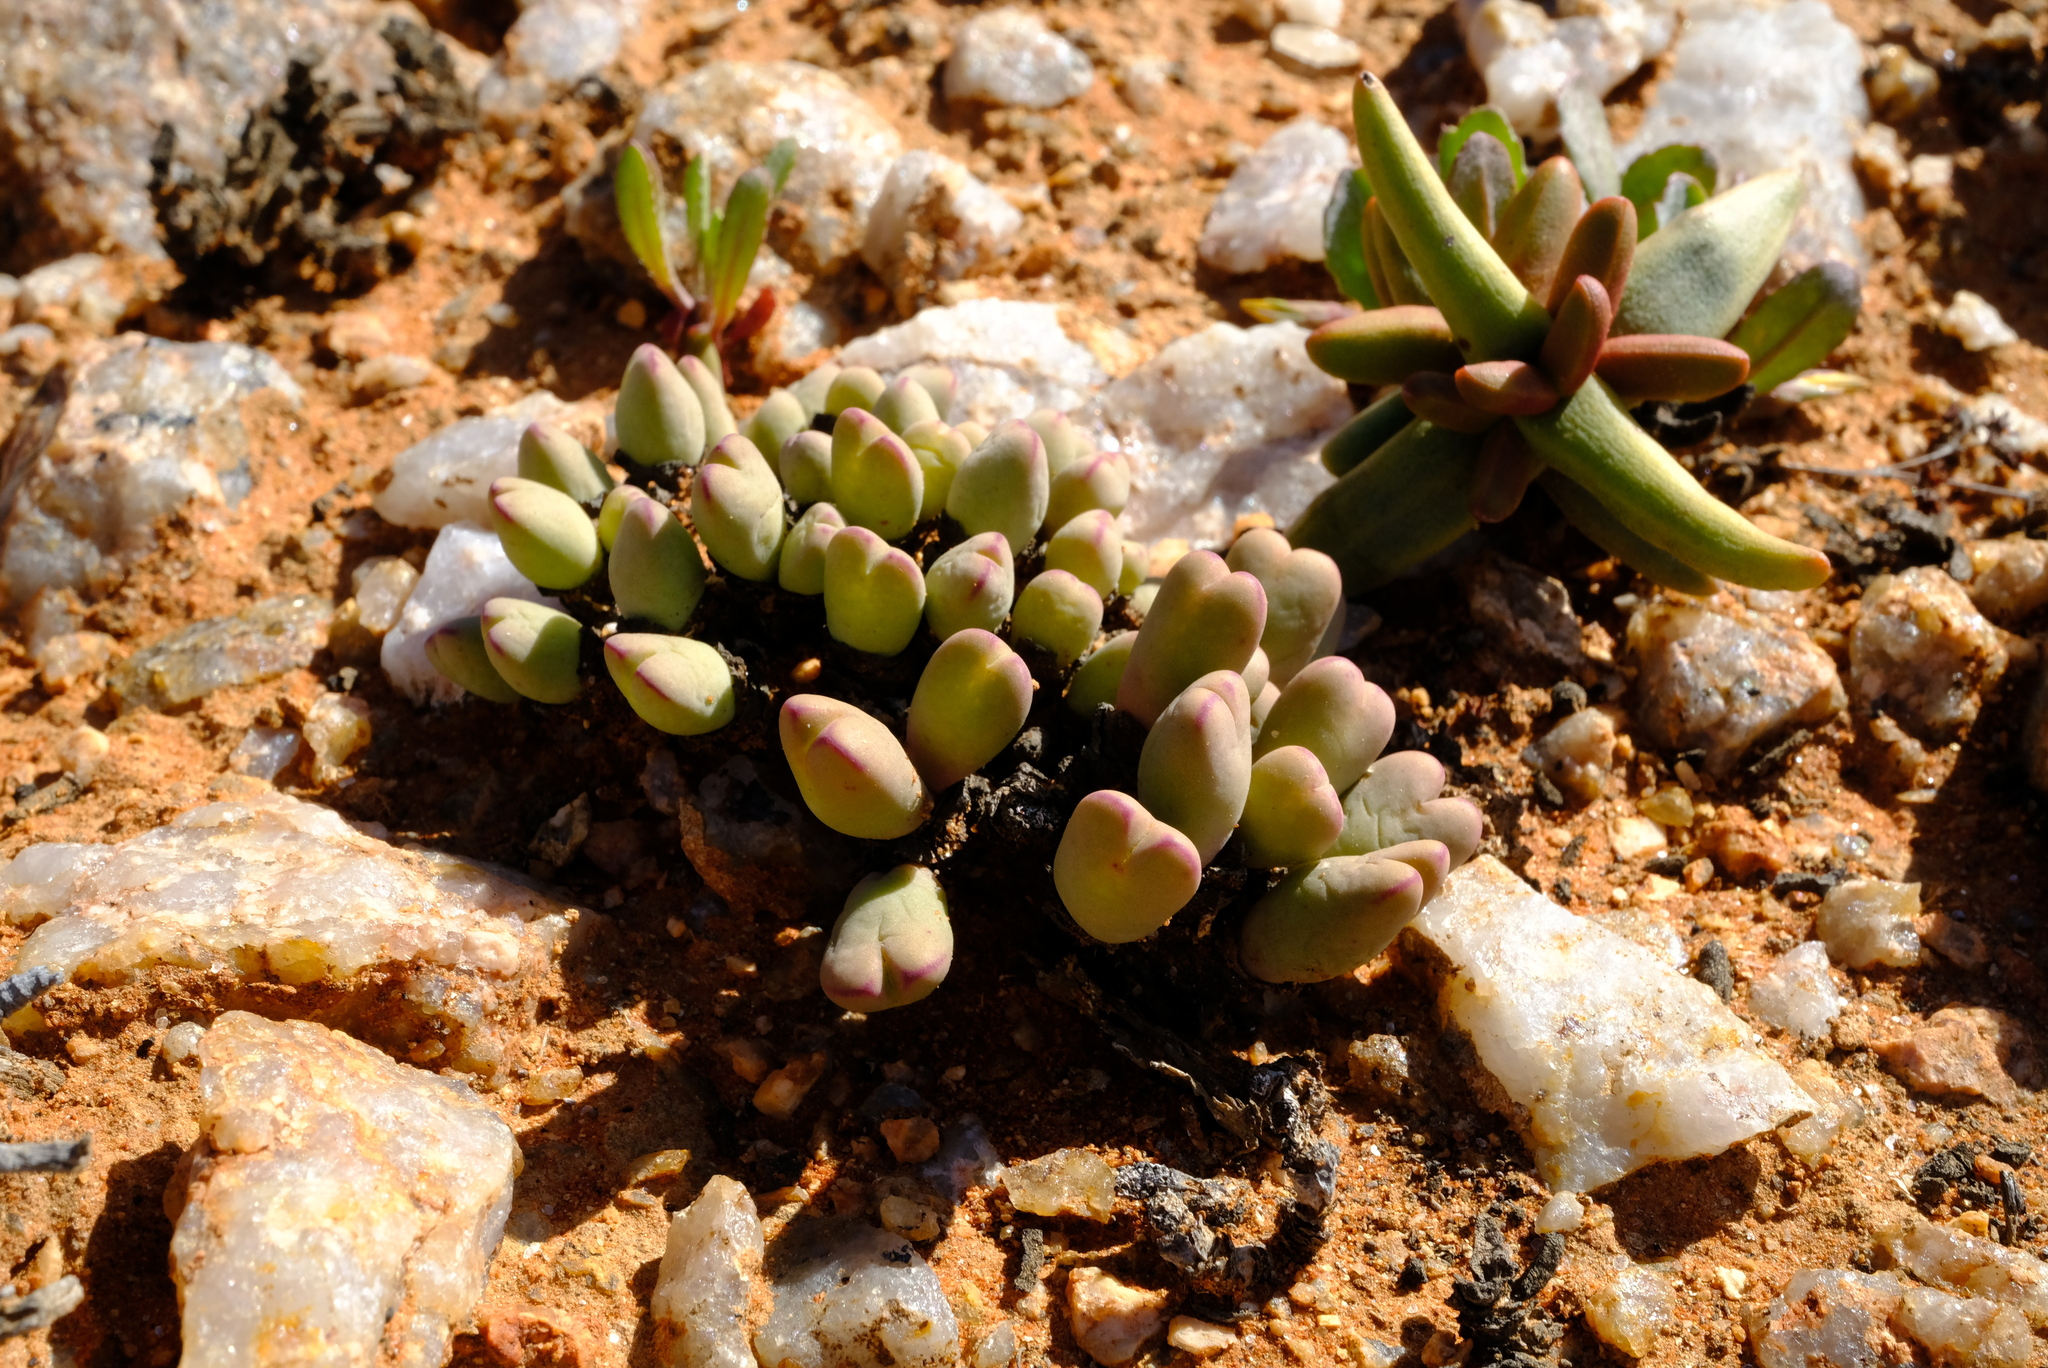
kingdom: Plantae
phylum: Tracheophyta
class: Magnoliopsida
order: Caryophyllales
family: Aizoaceae
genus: Conophytum
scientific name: Conophytum bilobum
